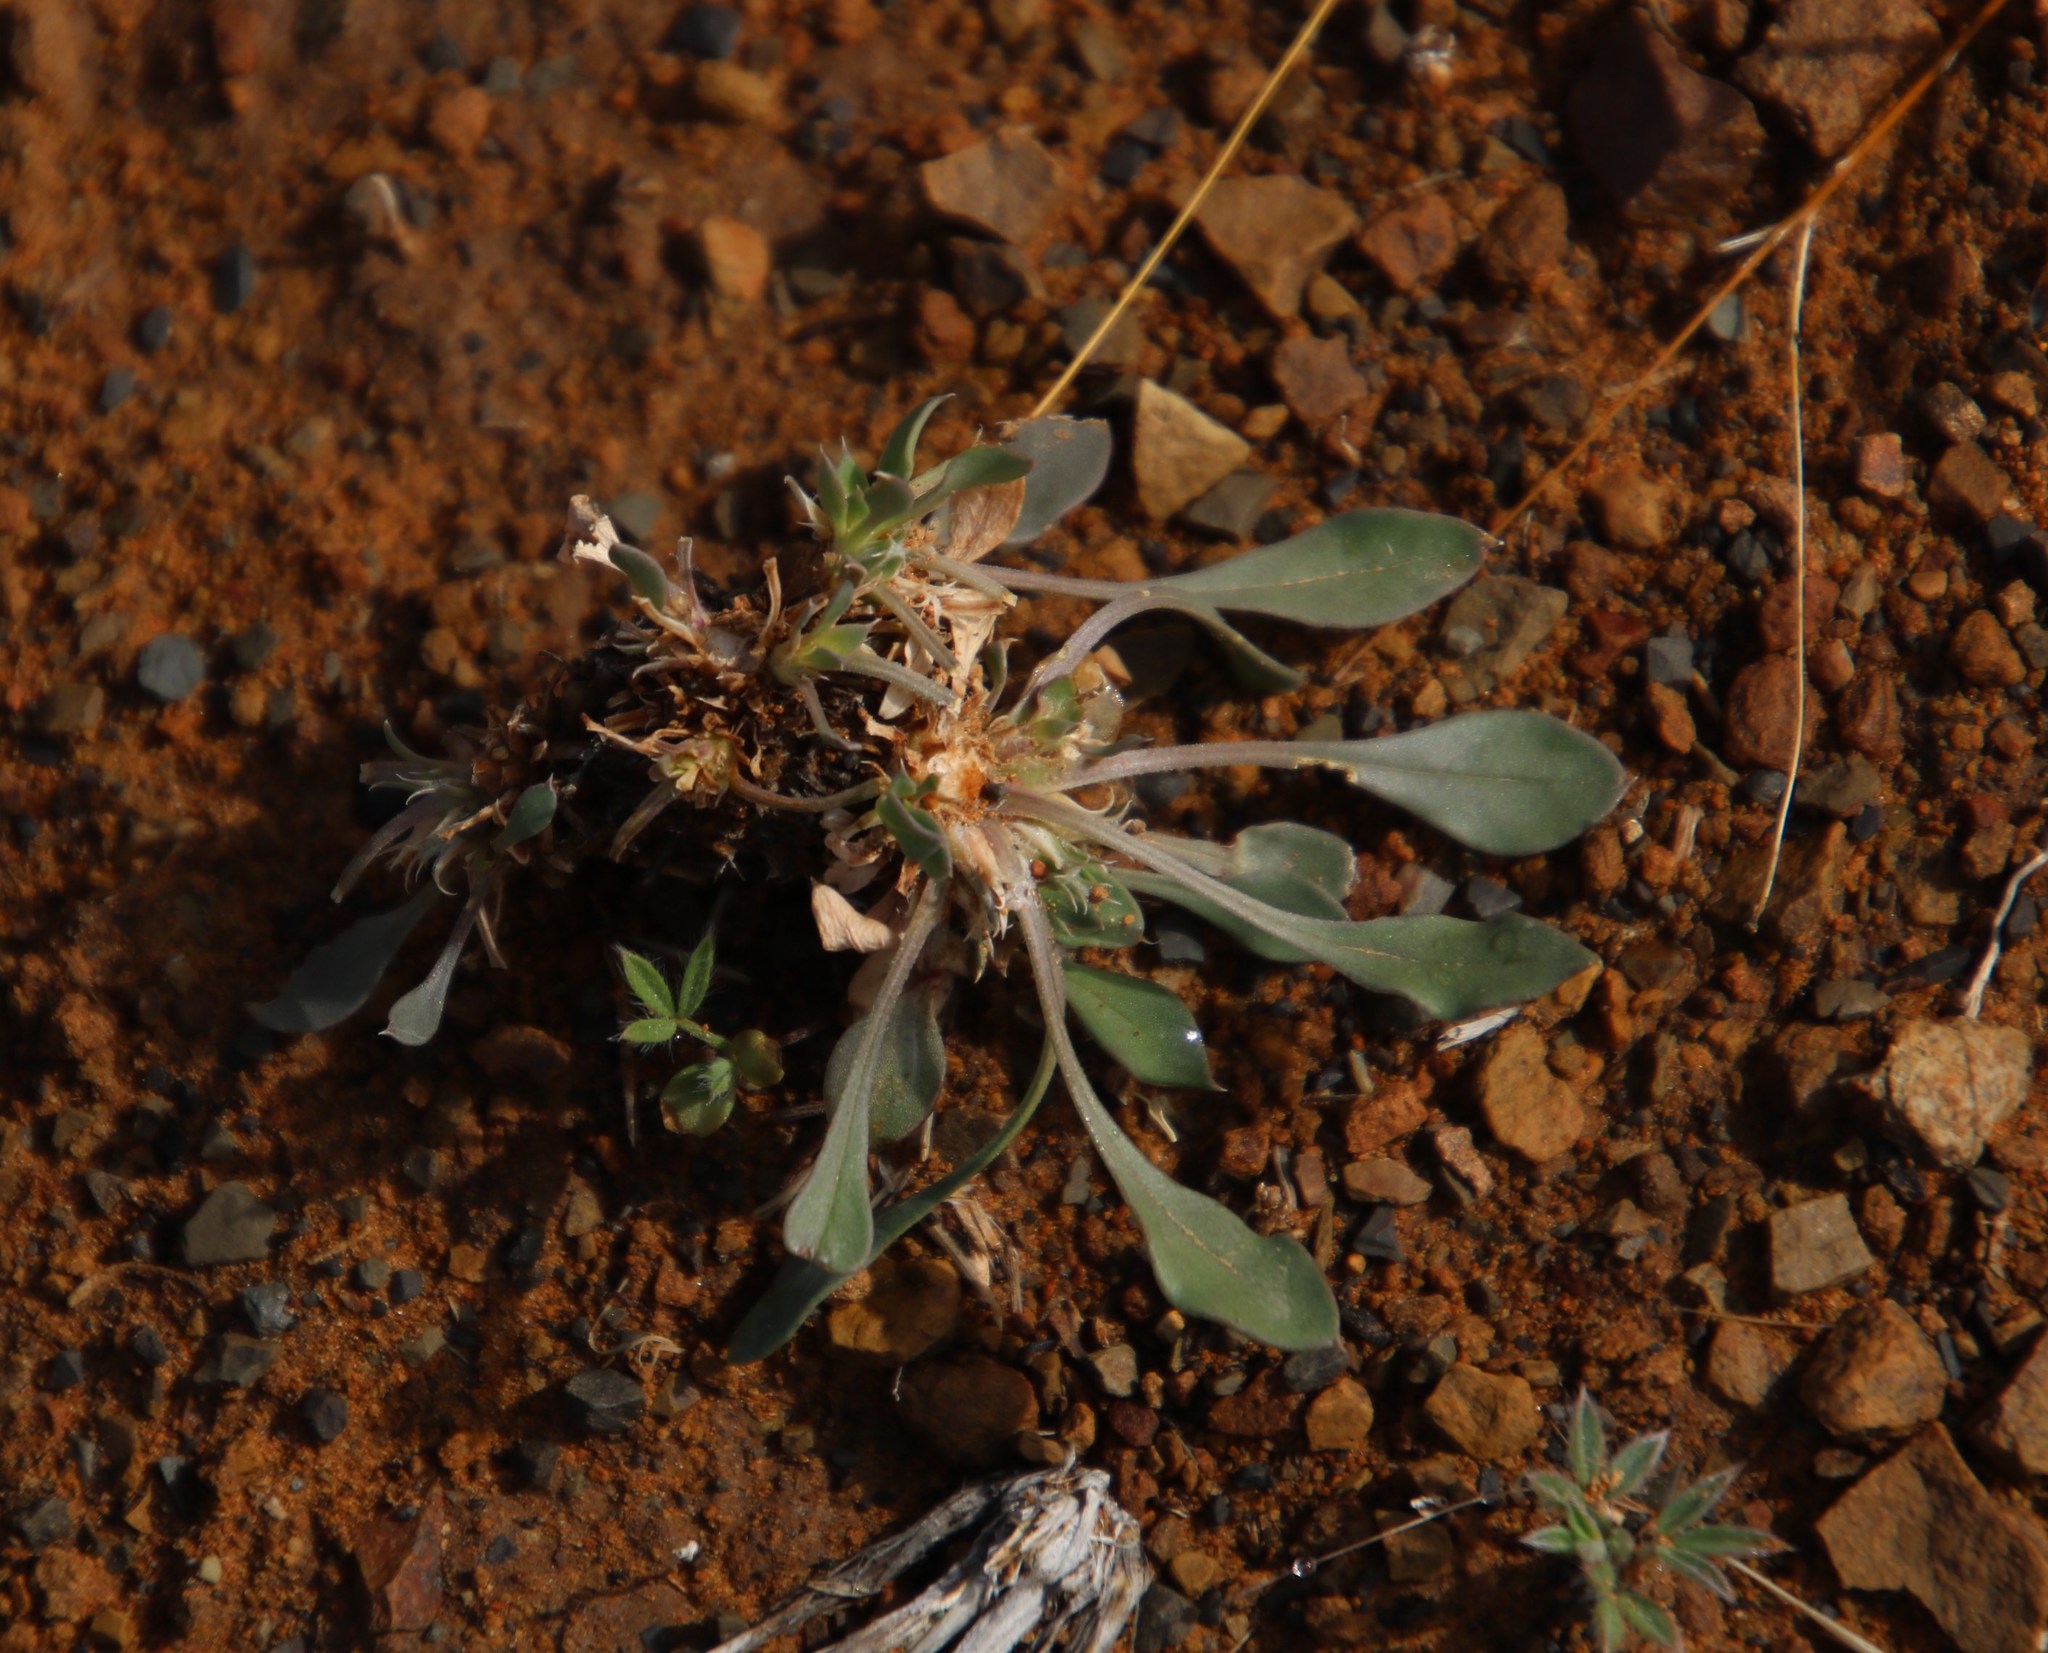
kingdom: Plantae
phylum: Tracheophyta
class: Magnoliopsida
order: Lamiales
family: Scrophulariaceae
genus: Aptosimum
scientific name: Aptosimum indivisum
